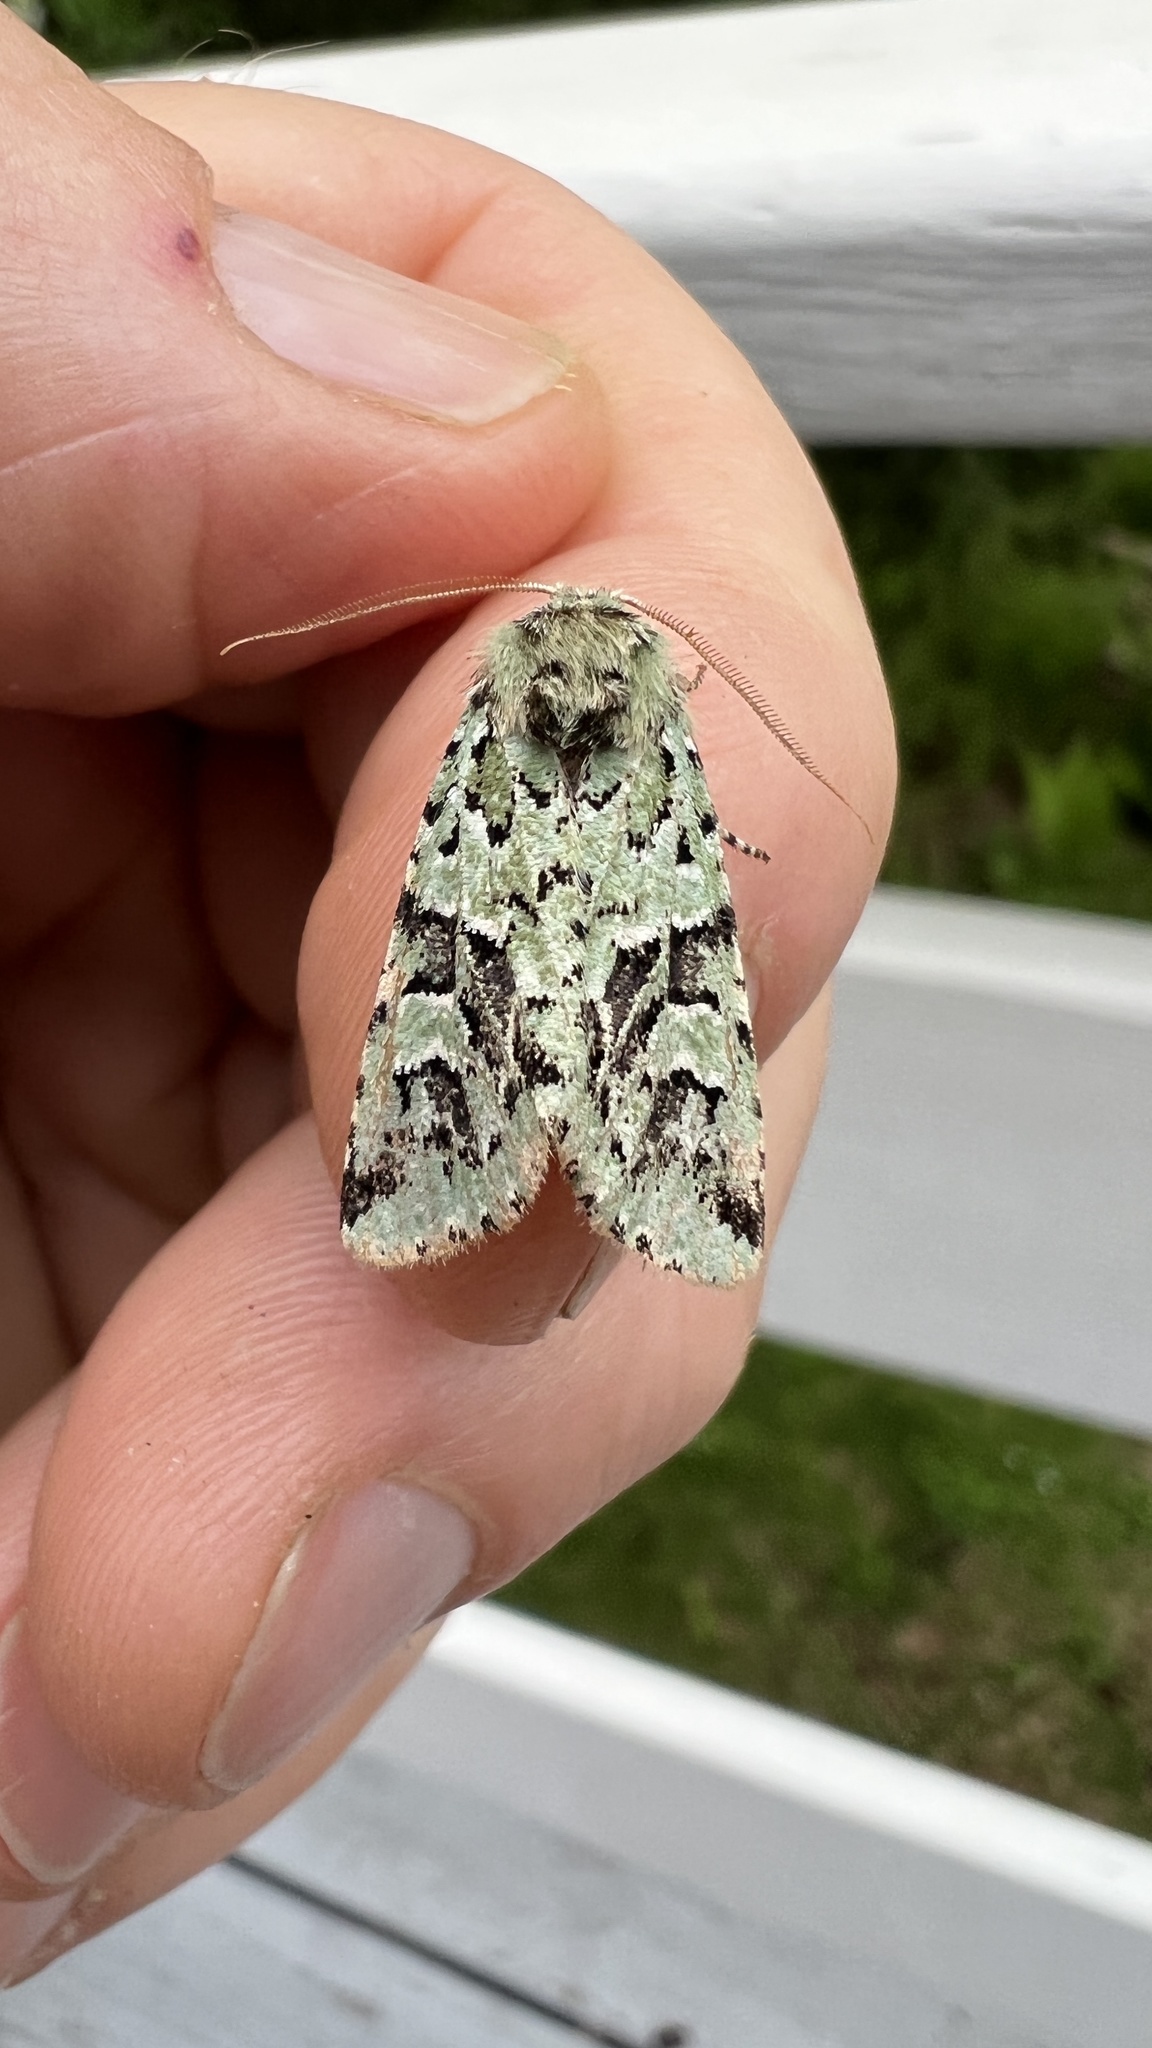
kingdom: Animalia
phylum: Arthropoda
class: Insecta
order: Lepidoptera
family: Noctuidae
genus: Feralia
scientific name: Feralia comstocki
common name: Comstock's sallow
